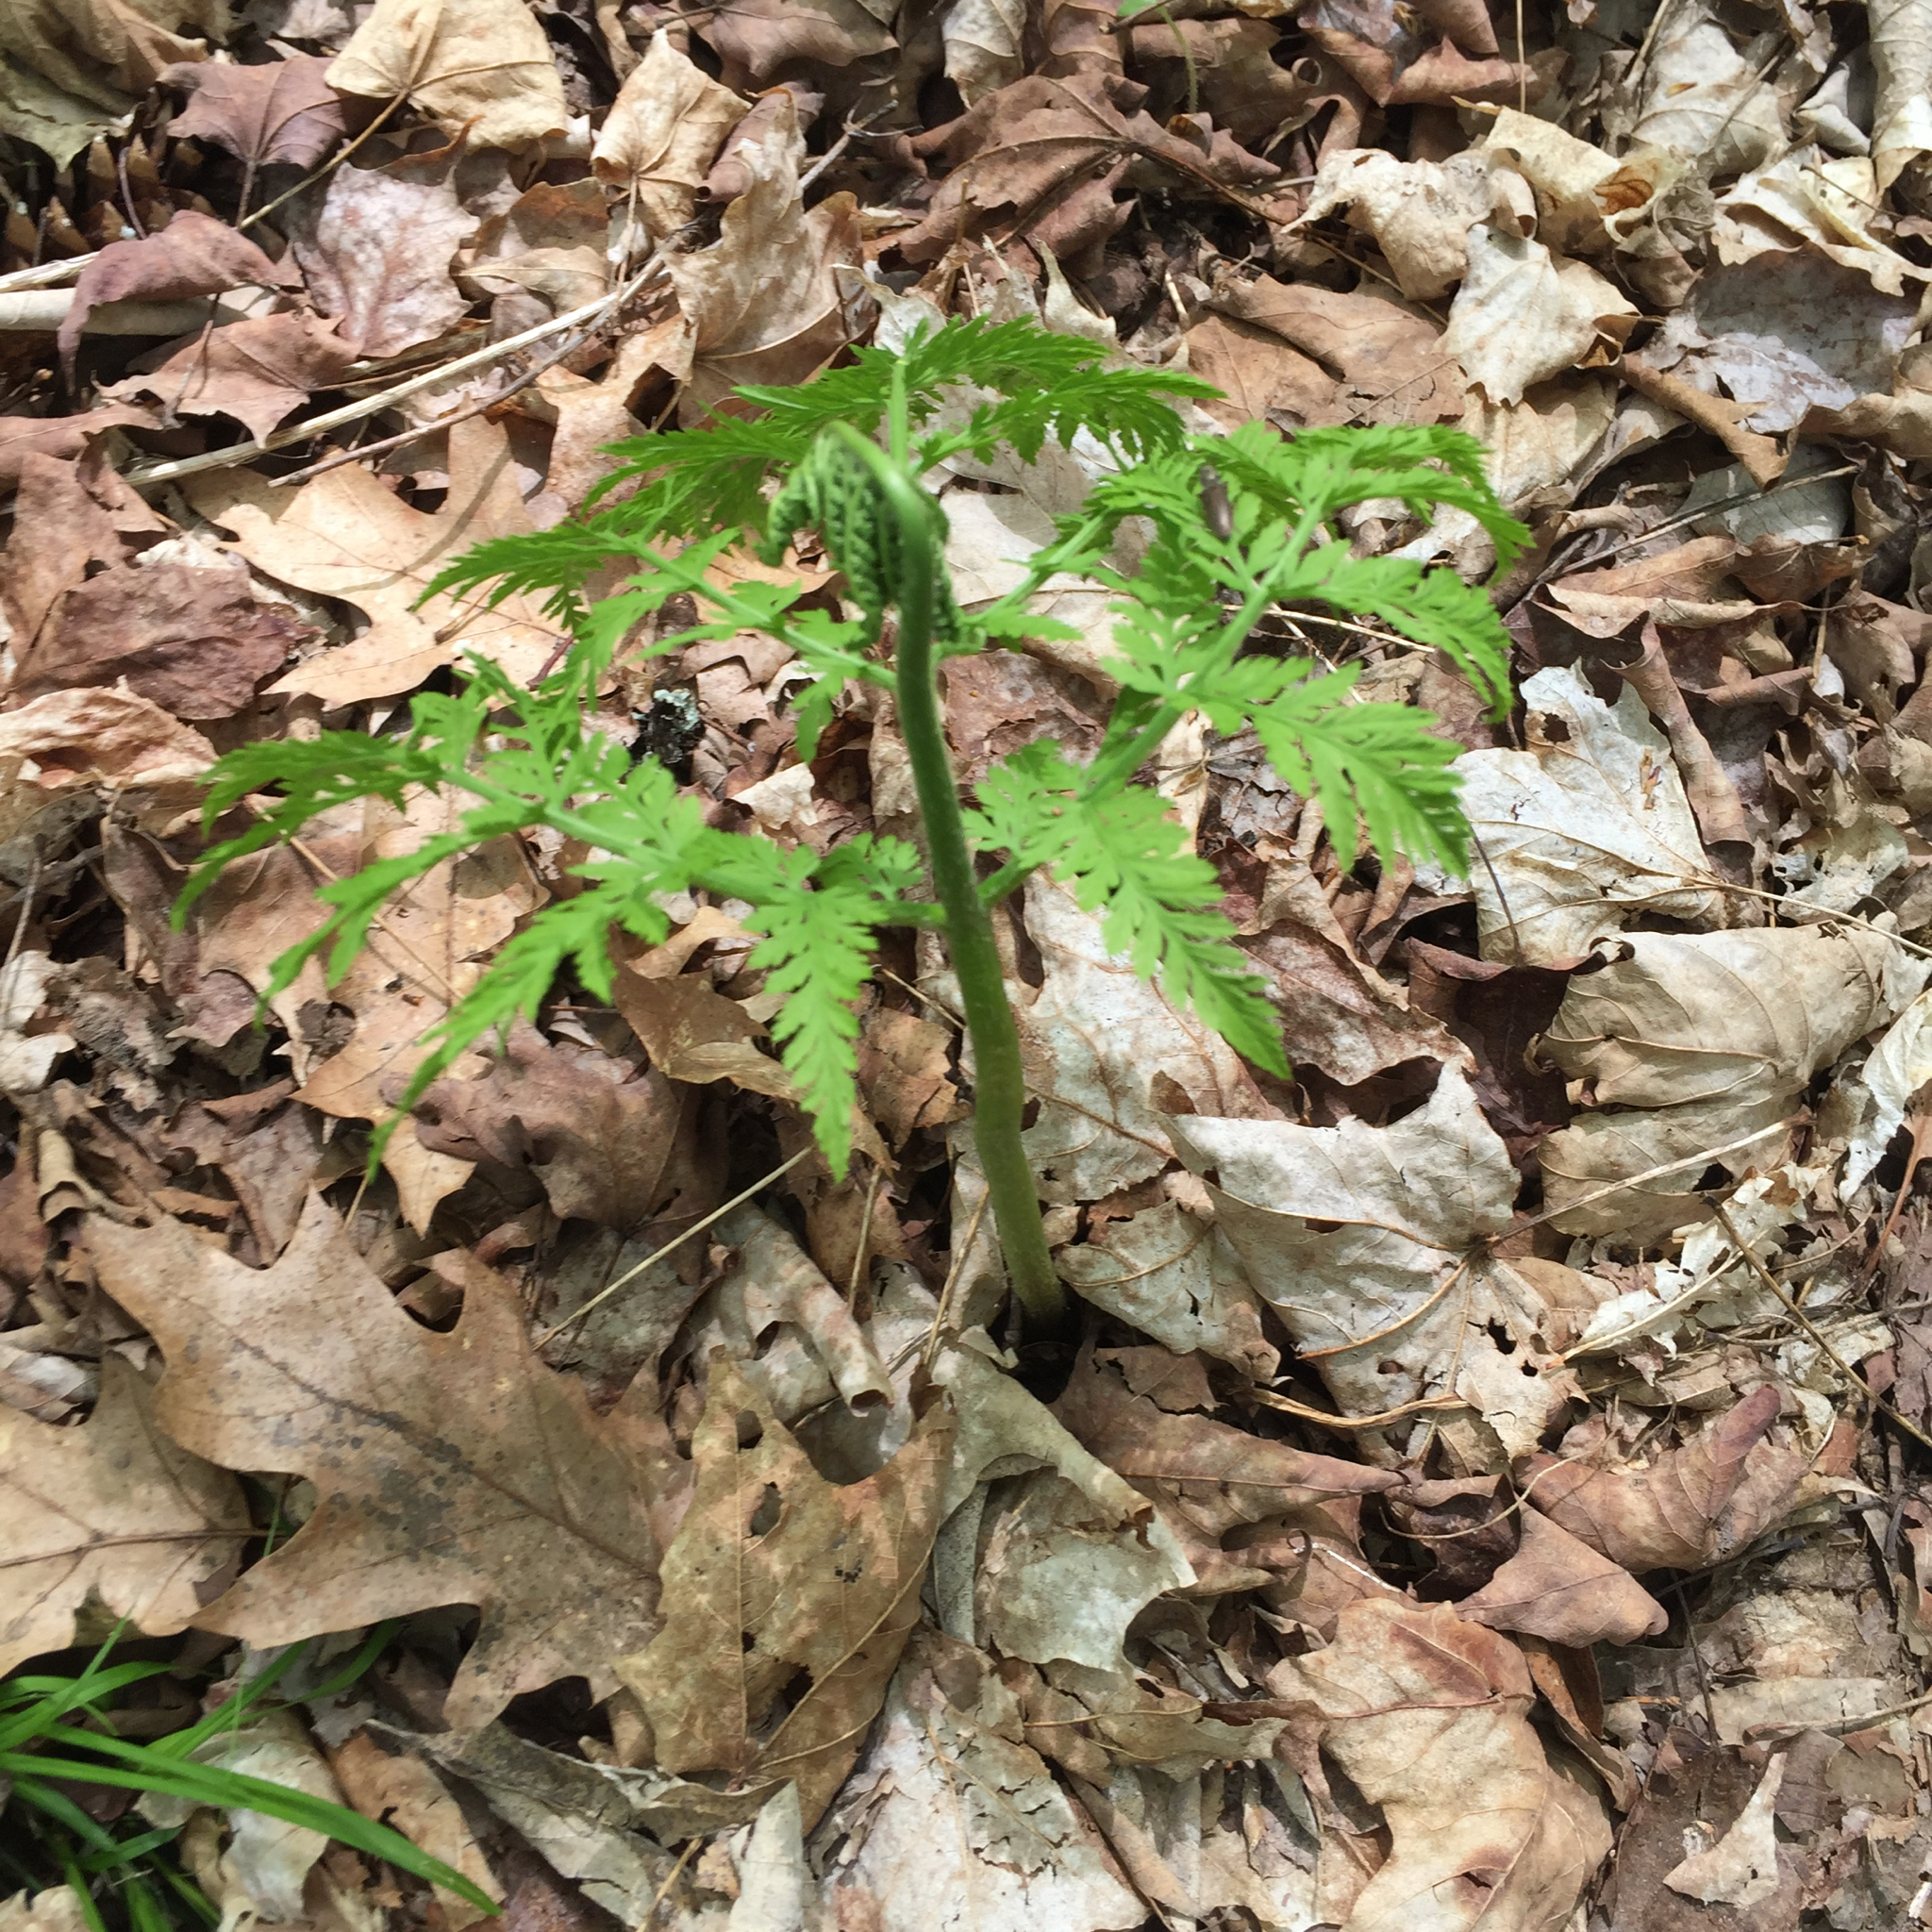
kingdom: Plantae
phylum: Tracheophyta
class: Polypodiopsida
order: Ophioglossales
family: Ophioglossaceae
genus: Botrypus
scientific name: Botrypus virginianus
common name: Common grapefern
